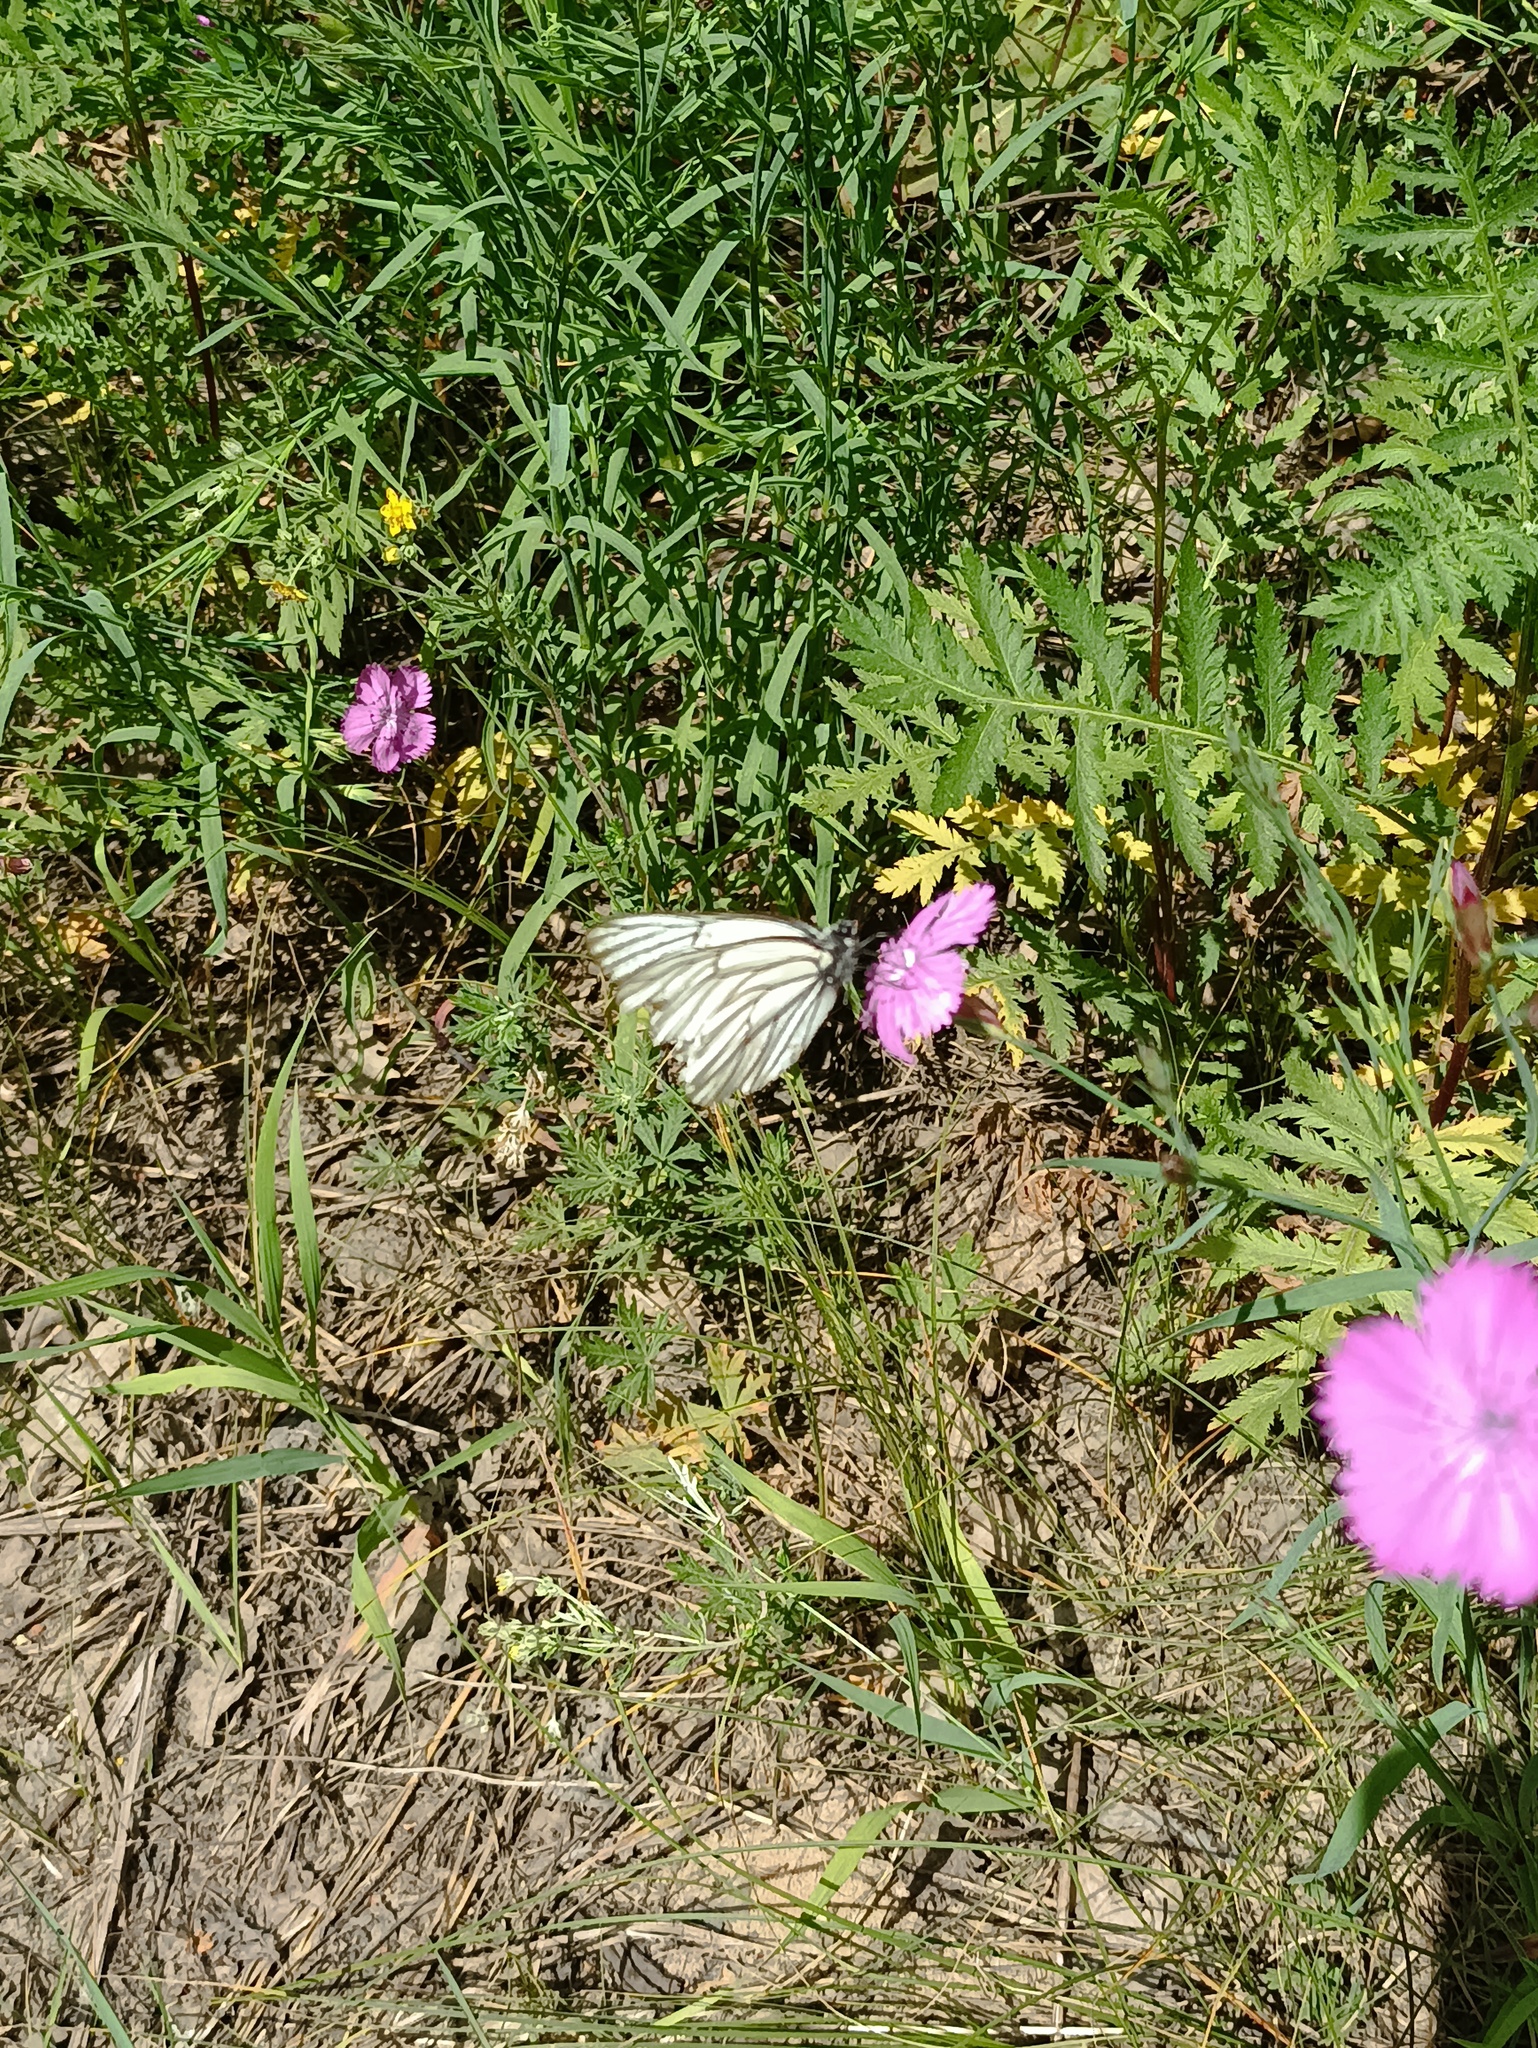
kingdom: Animalia
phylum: Arthropoda
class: Insecta
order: Lepidoptera
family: Pieridae
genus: Aporia
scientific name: Aporia crataegi
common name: Black-veined white
